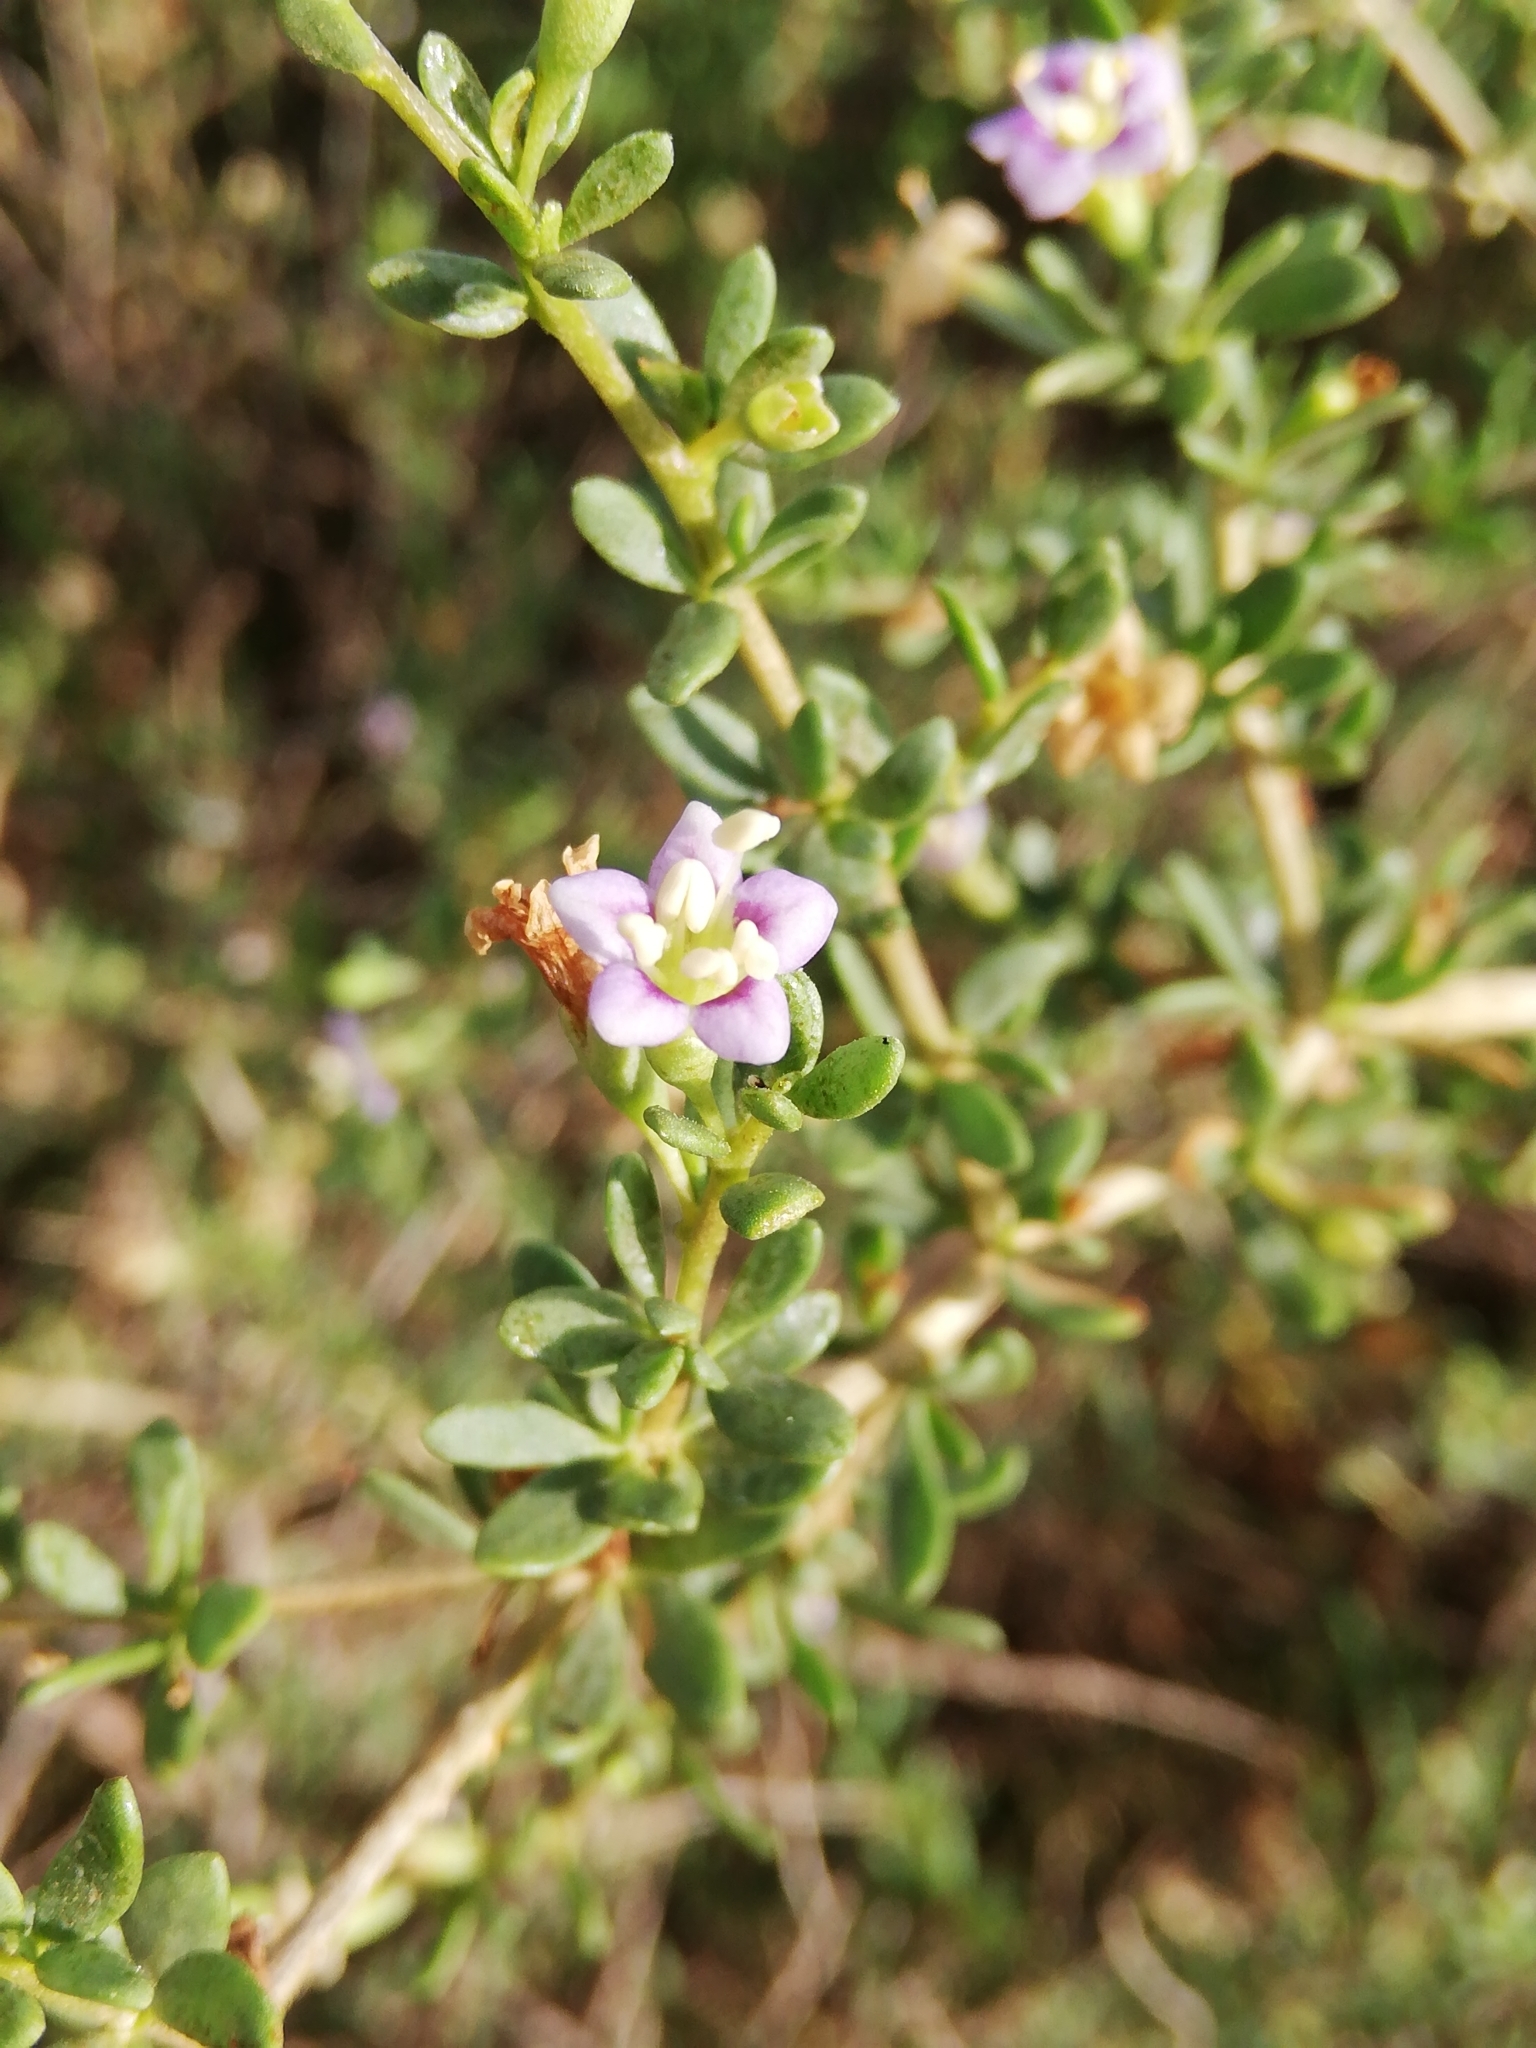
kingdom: Plantae
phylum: Tracheophyta
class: Magnoliopsida
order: Solanales
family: Solanaceae
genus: Lycium
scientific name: Lycium ferocissimum
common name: African boxthorn
